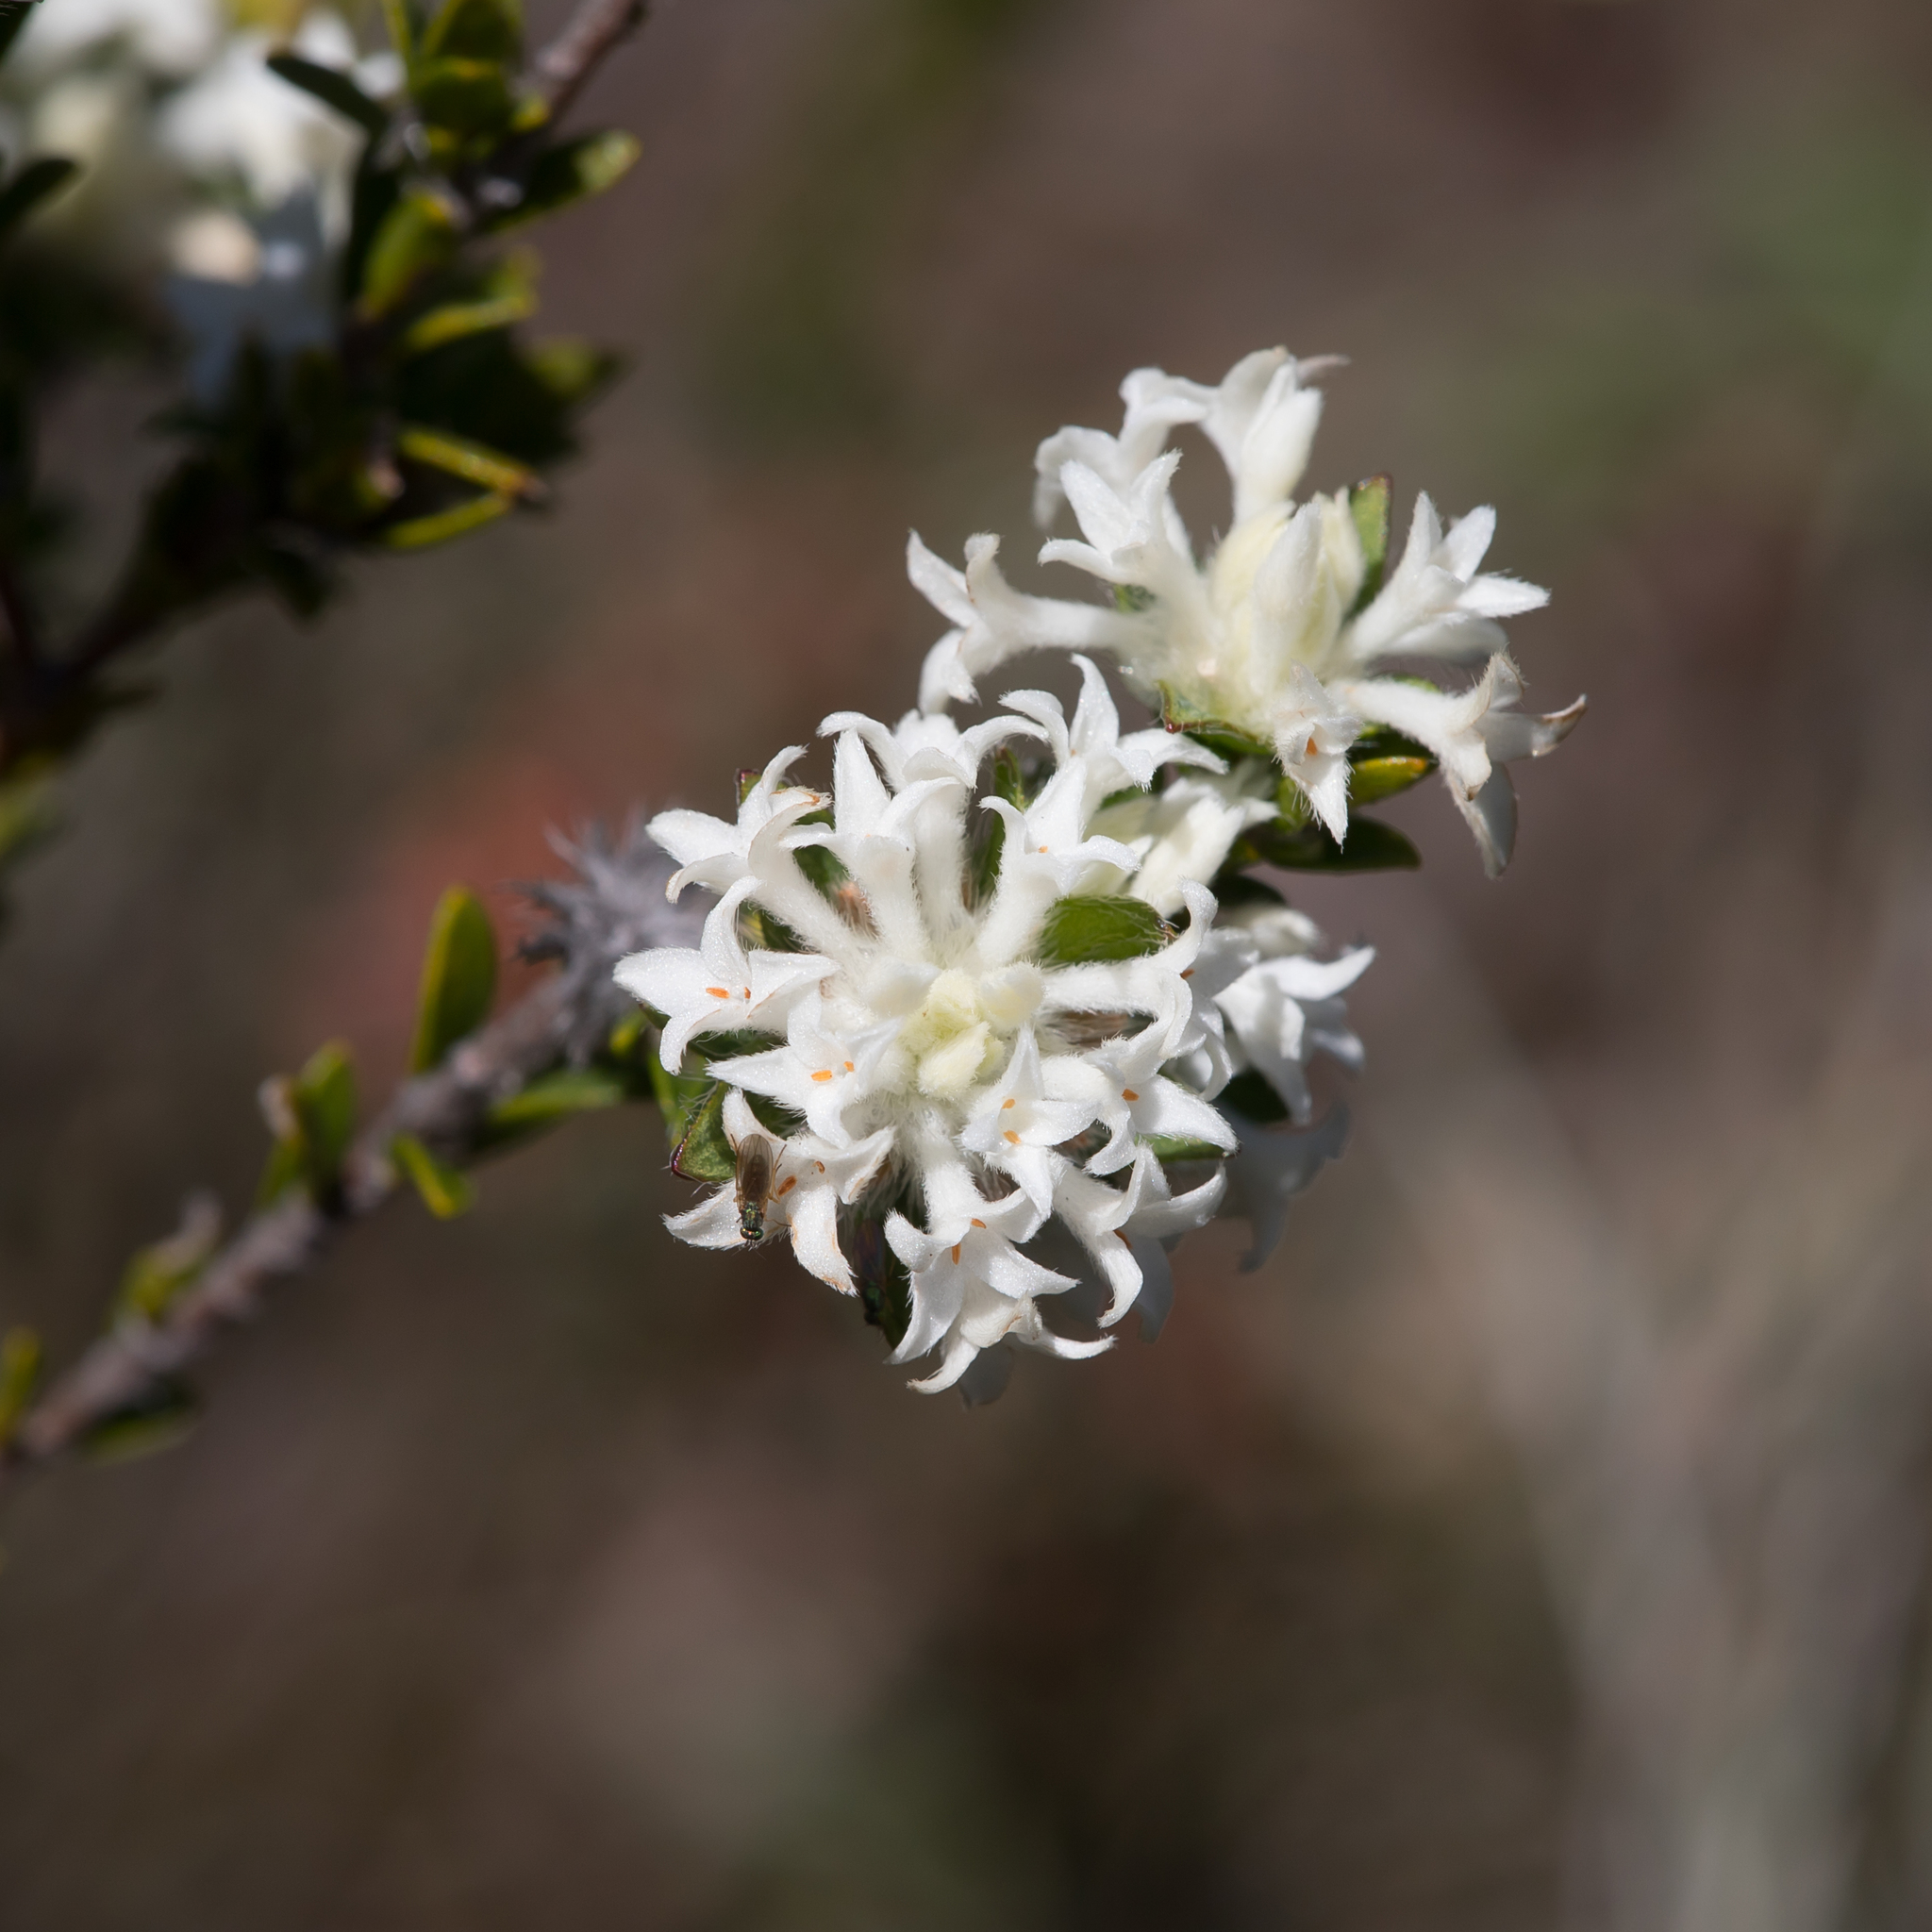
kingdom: Plantae
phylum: Tracheophyta
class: Magnoliopsida
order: Malvales
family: Thymelaeaceae
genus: Pimelea
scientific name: Pimelea phylicoides
